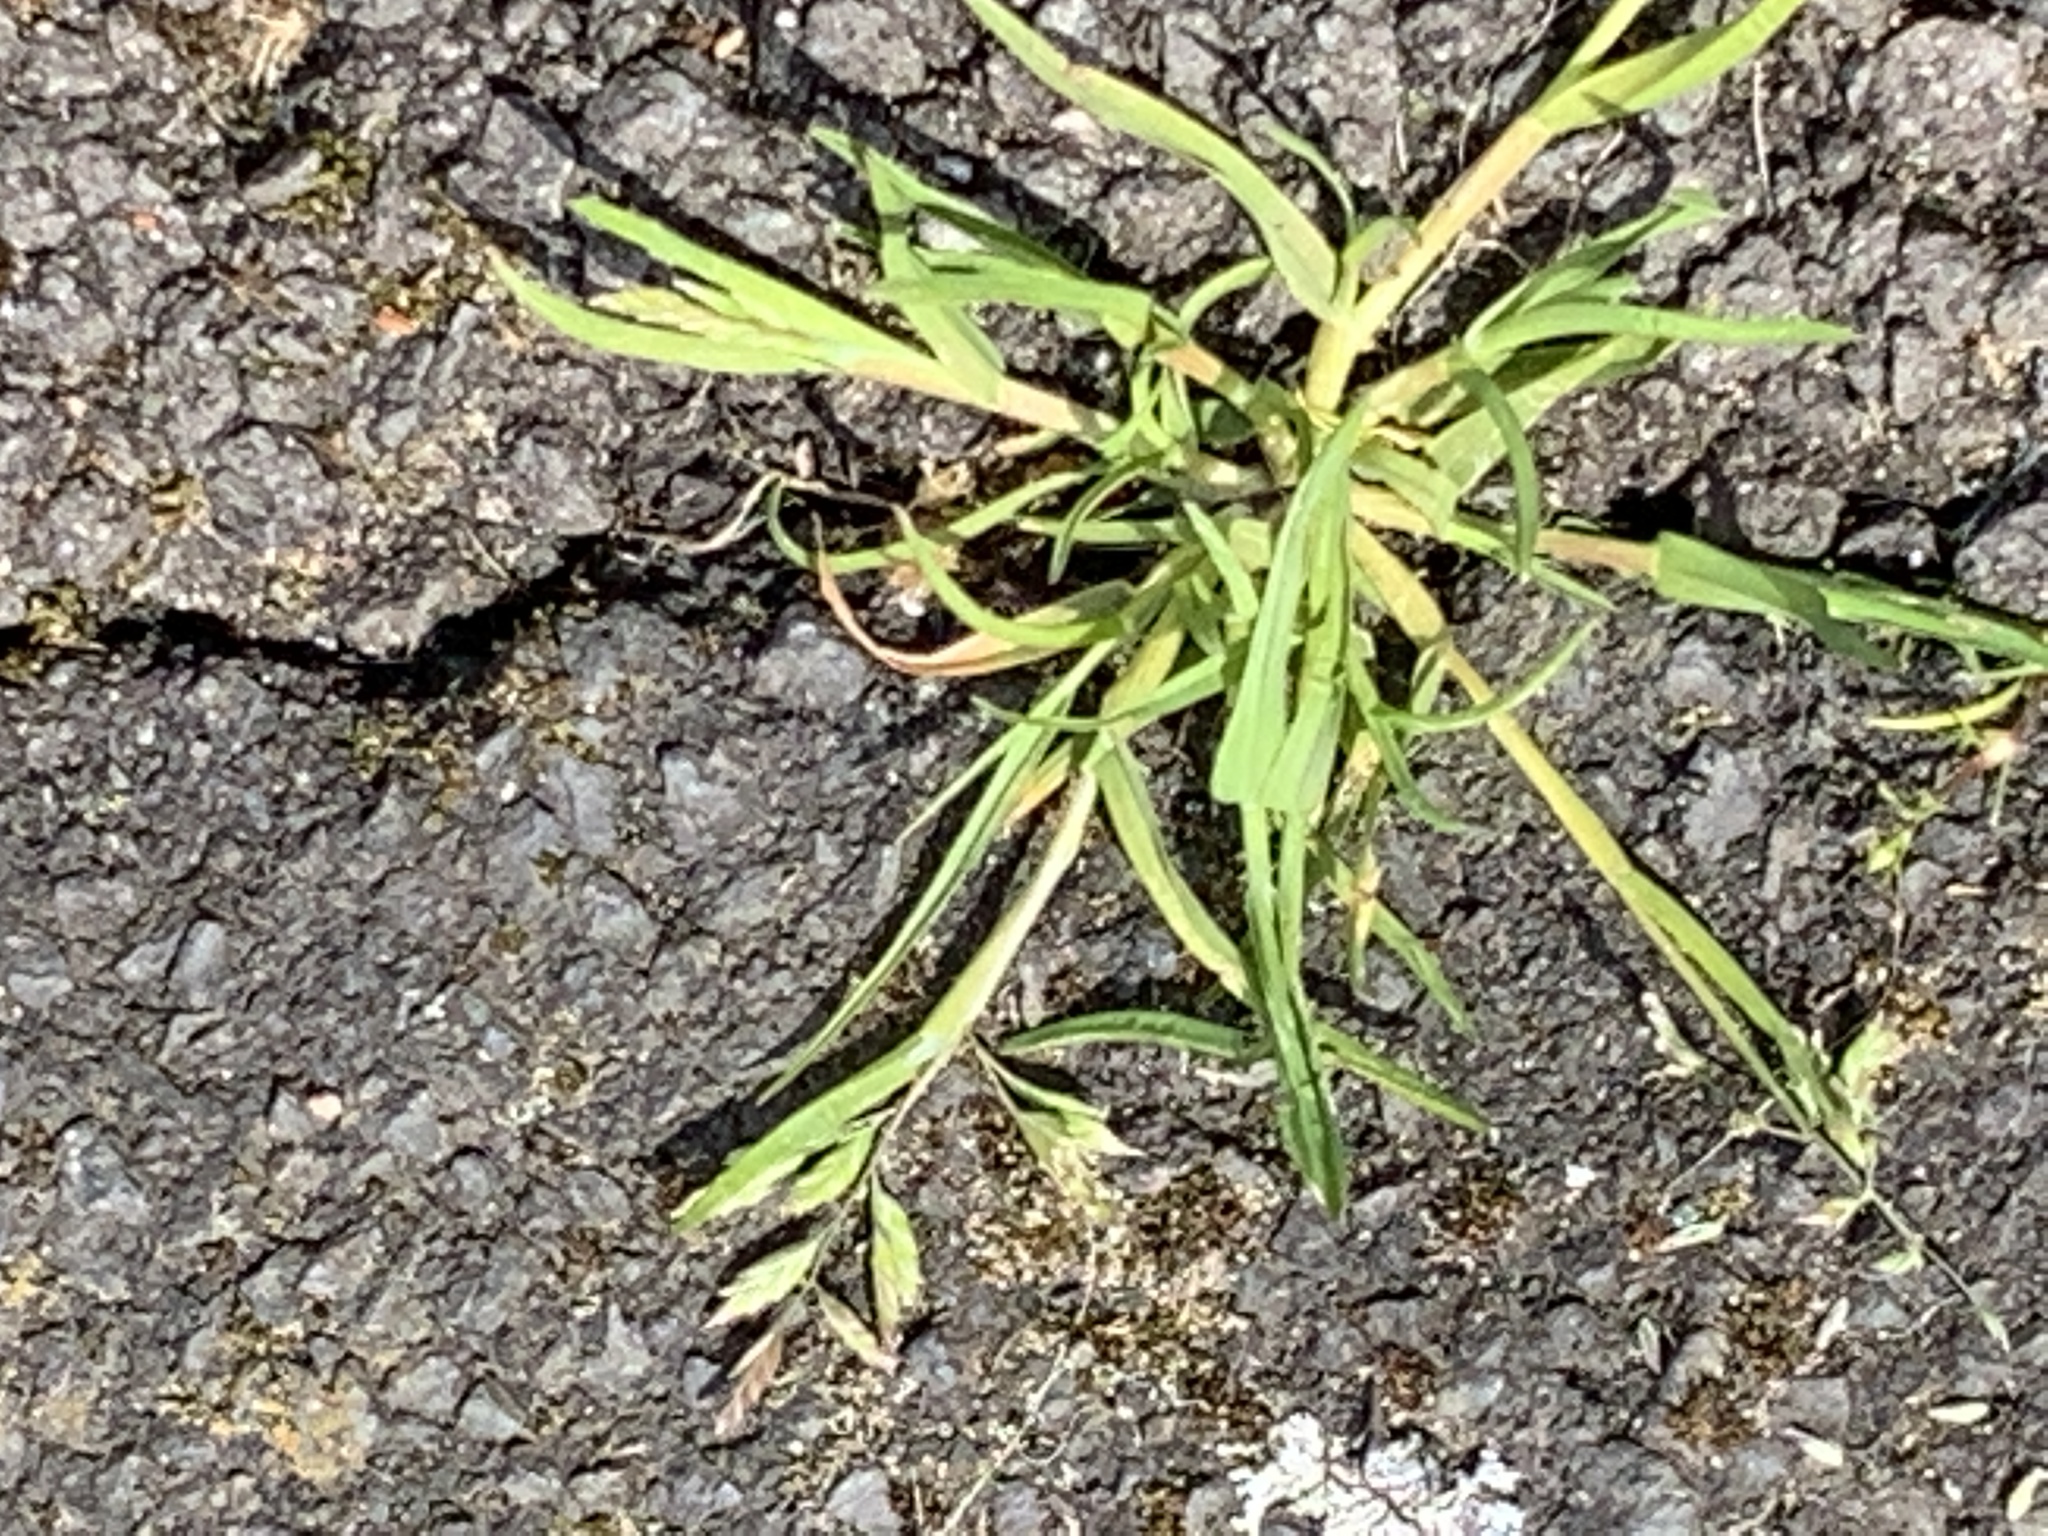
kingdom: Plantae
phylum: Tracheophyta
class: Liliopsida
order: Poales
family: Poaceae
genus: Poa
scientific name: Poa annua
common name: Annual bluegrass
